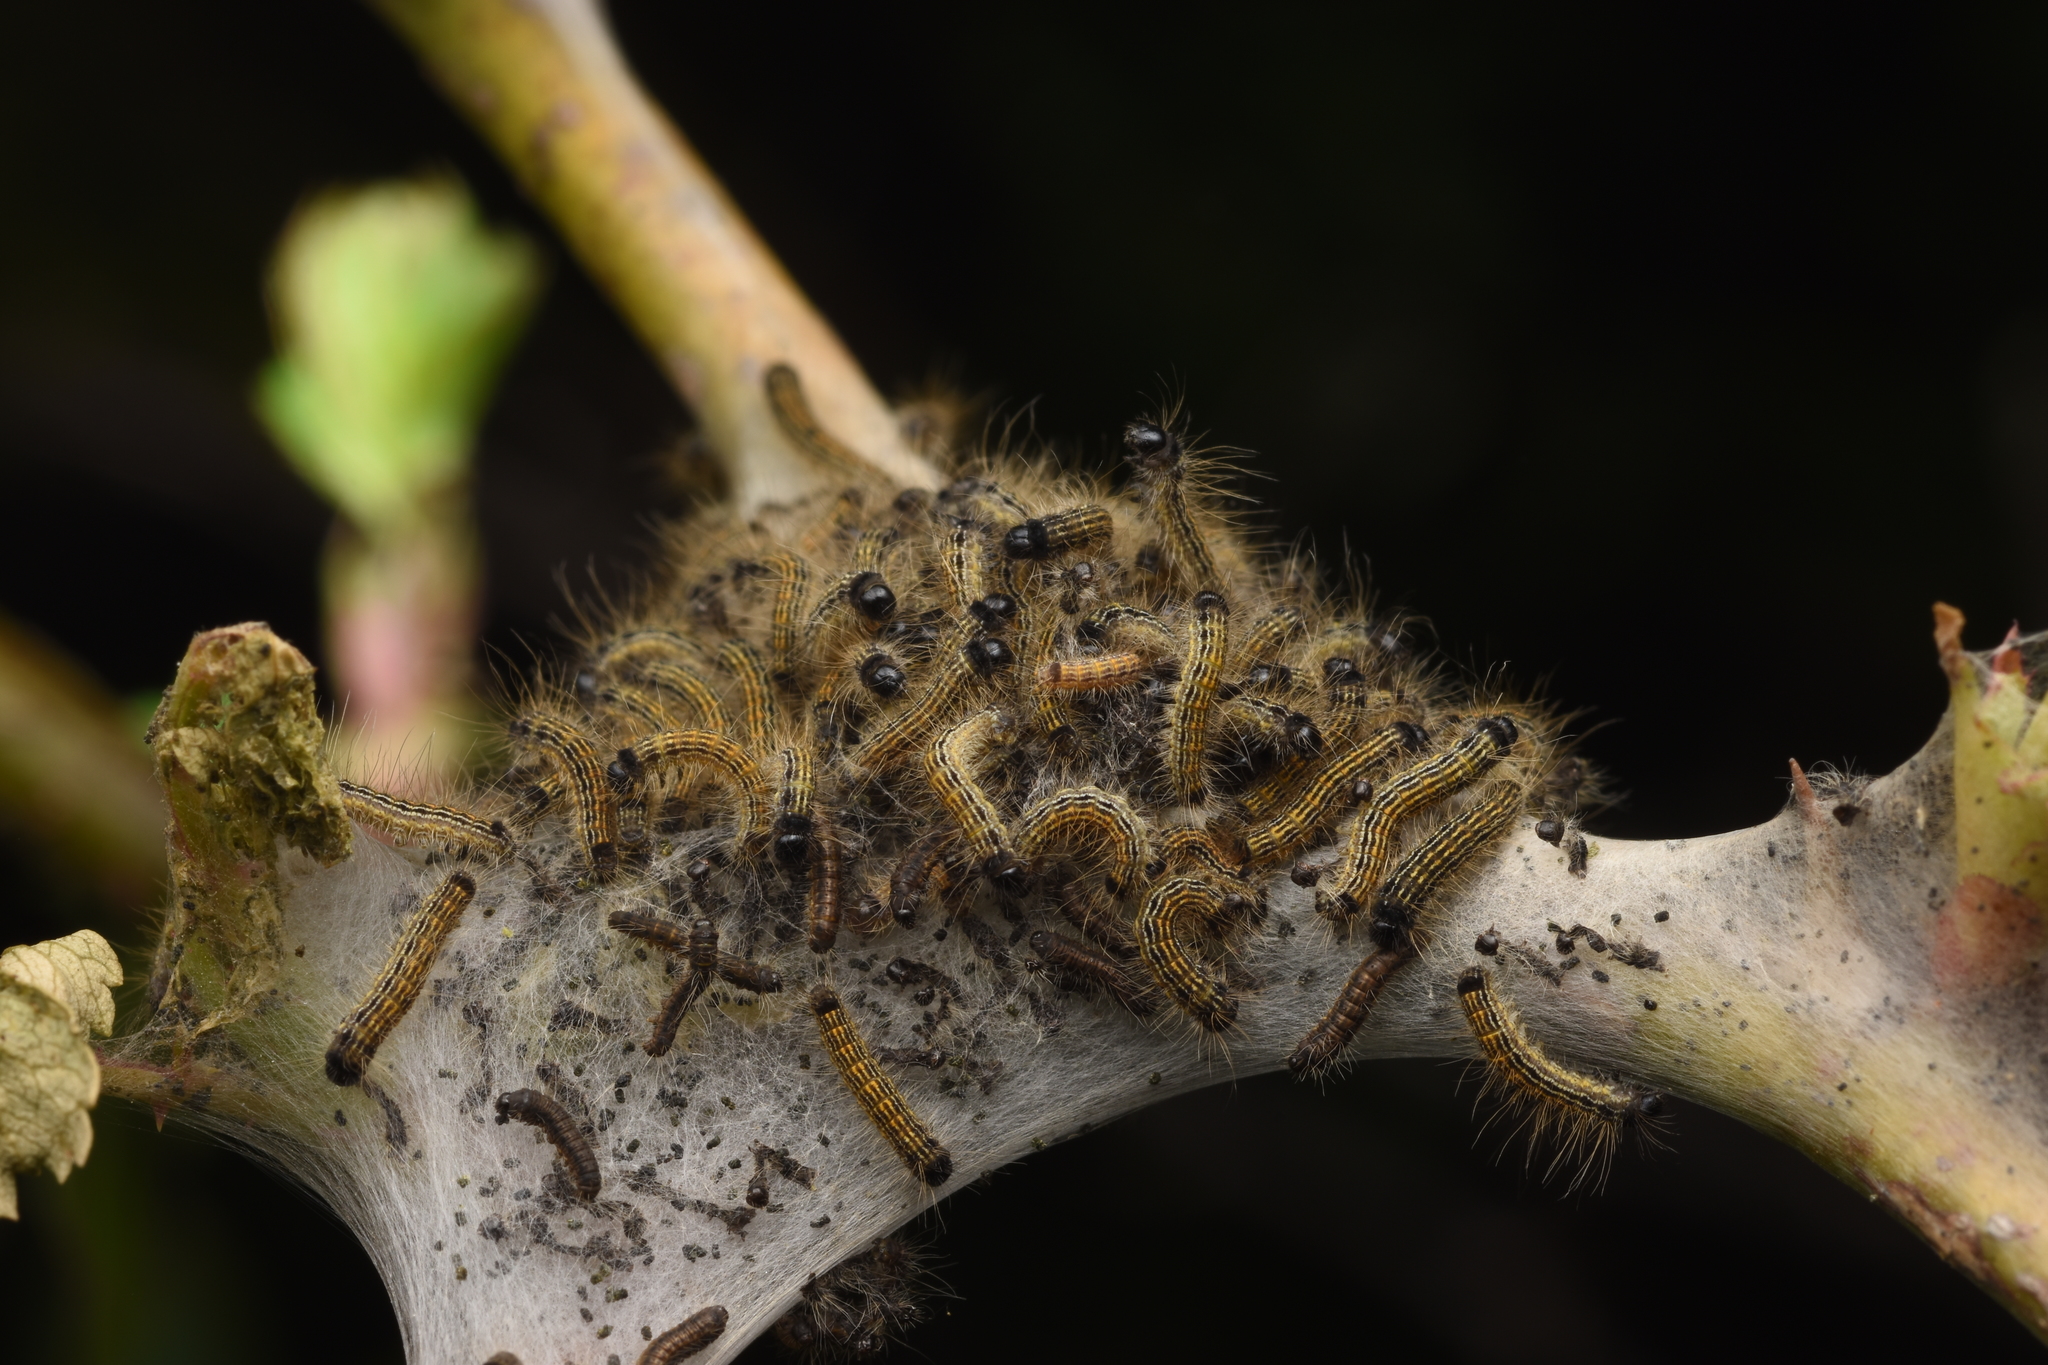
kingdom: Animalia
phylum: Arthropoda
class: Insecta
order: Lepidoptera
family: Lasiocampidae
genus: Malacosoma
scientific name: Malacosoma neustria
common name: The lackey
